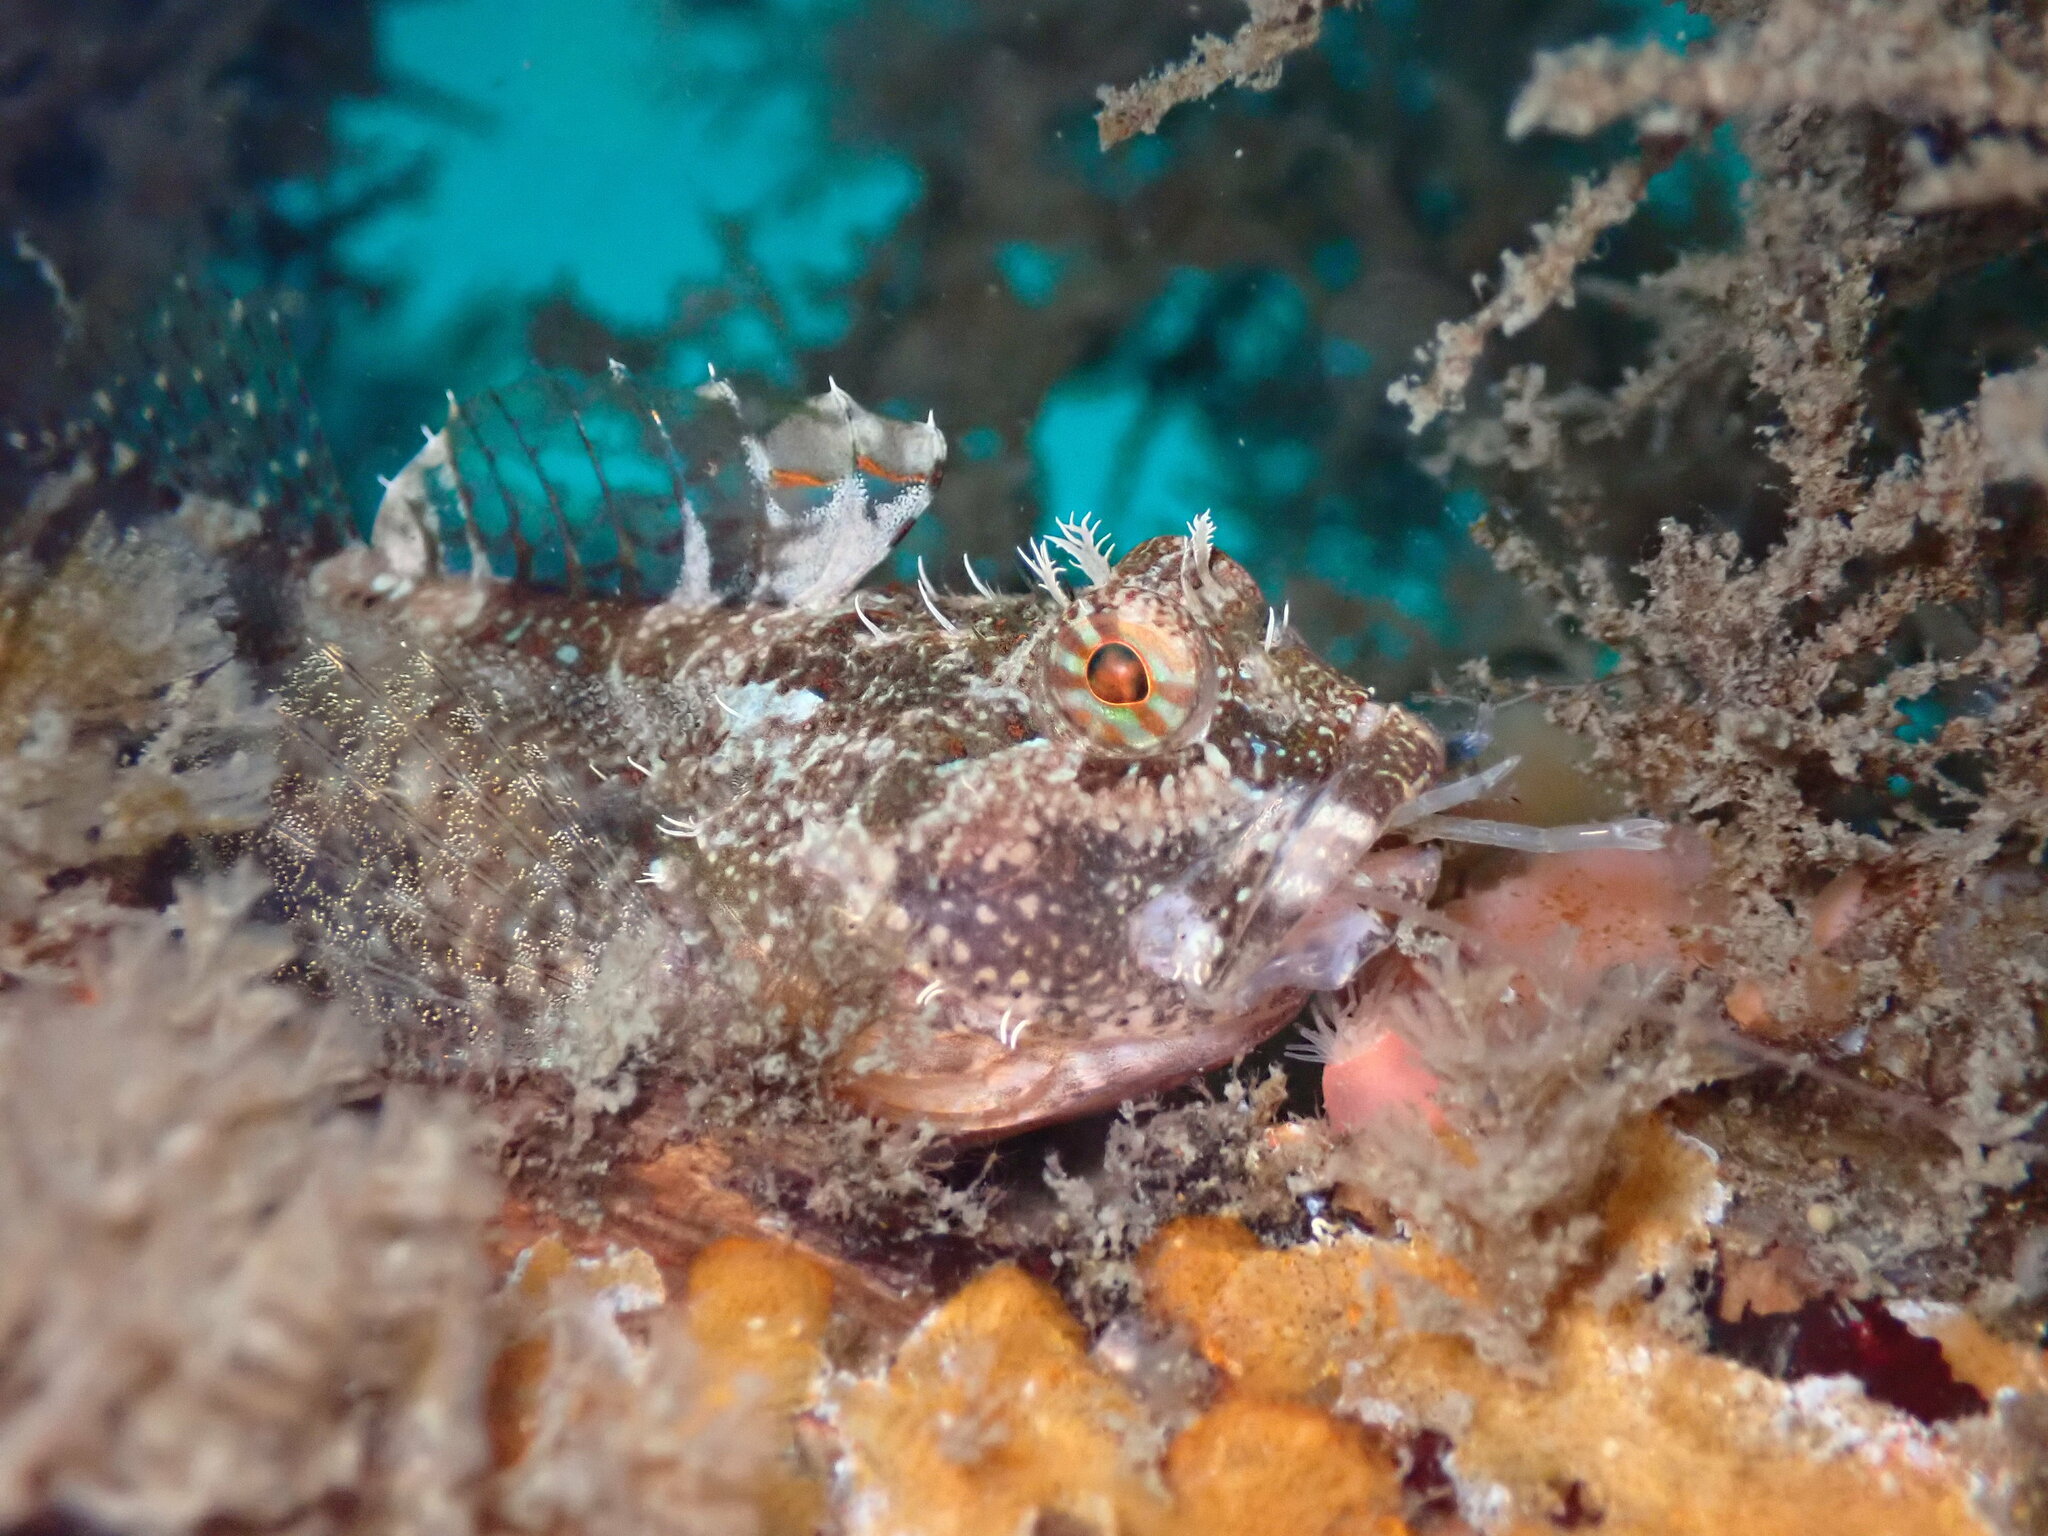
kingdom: Animalia
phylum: Chordata
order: Scorpaeniformes
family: Cottidae
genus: Artedius
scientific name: Artedius harringtoni
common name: Scalyhead sculpin
